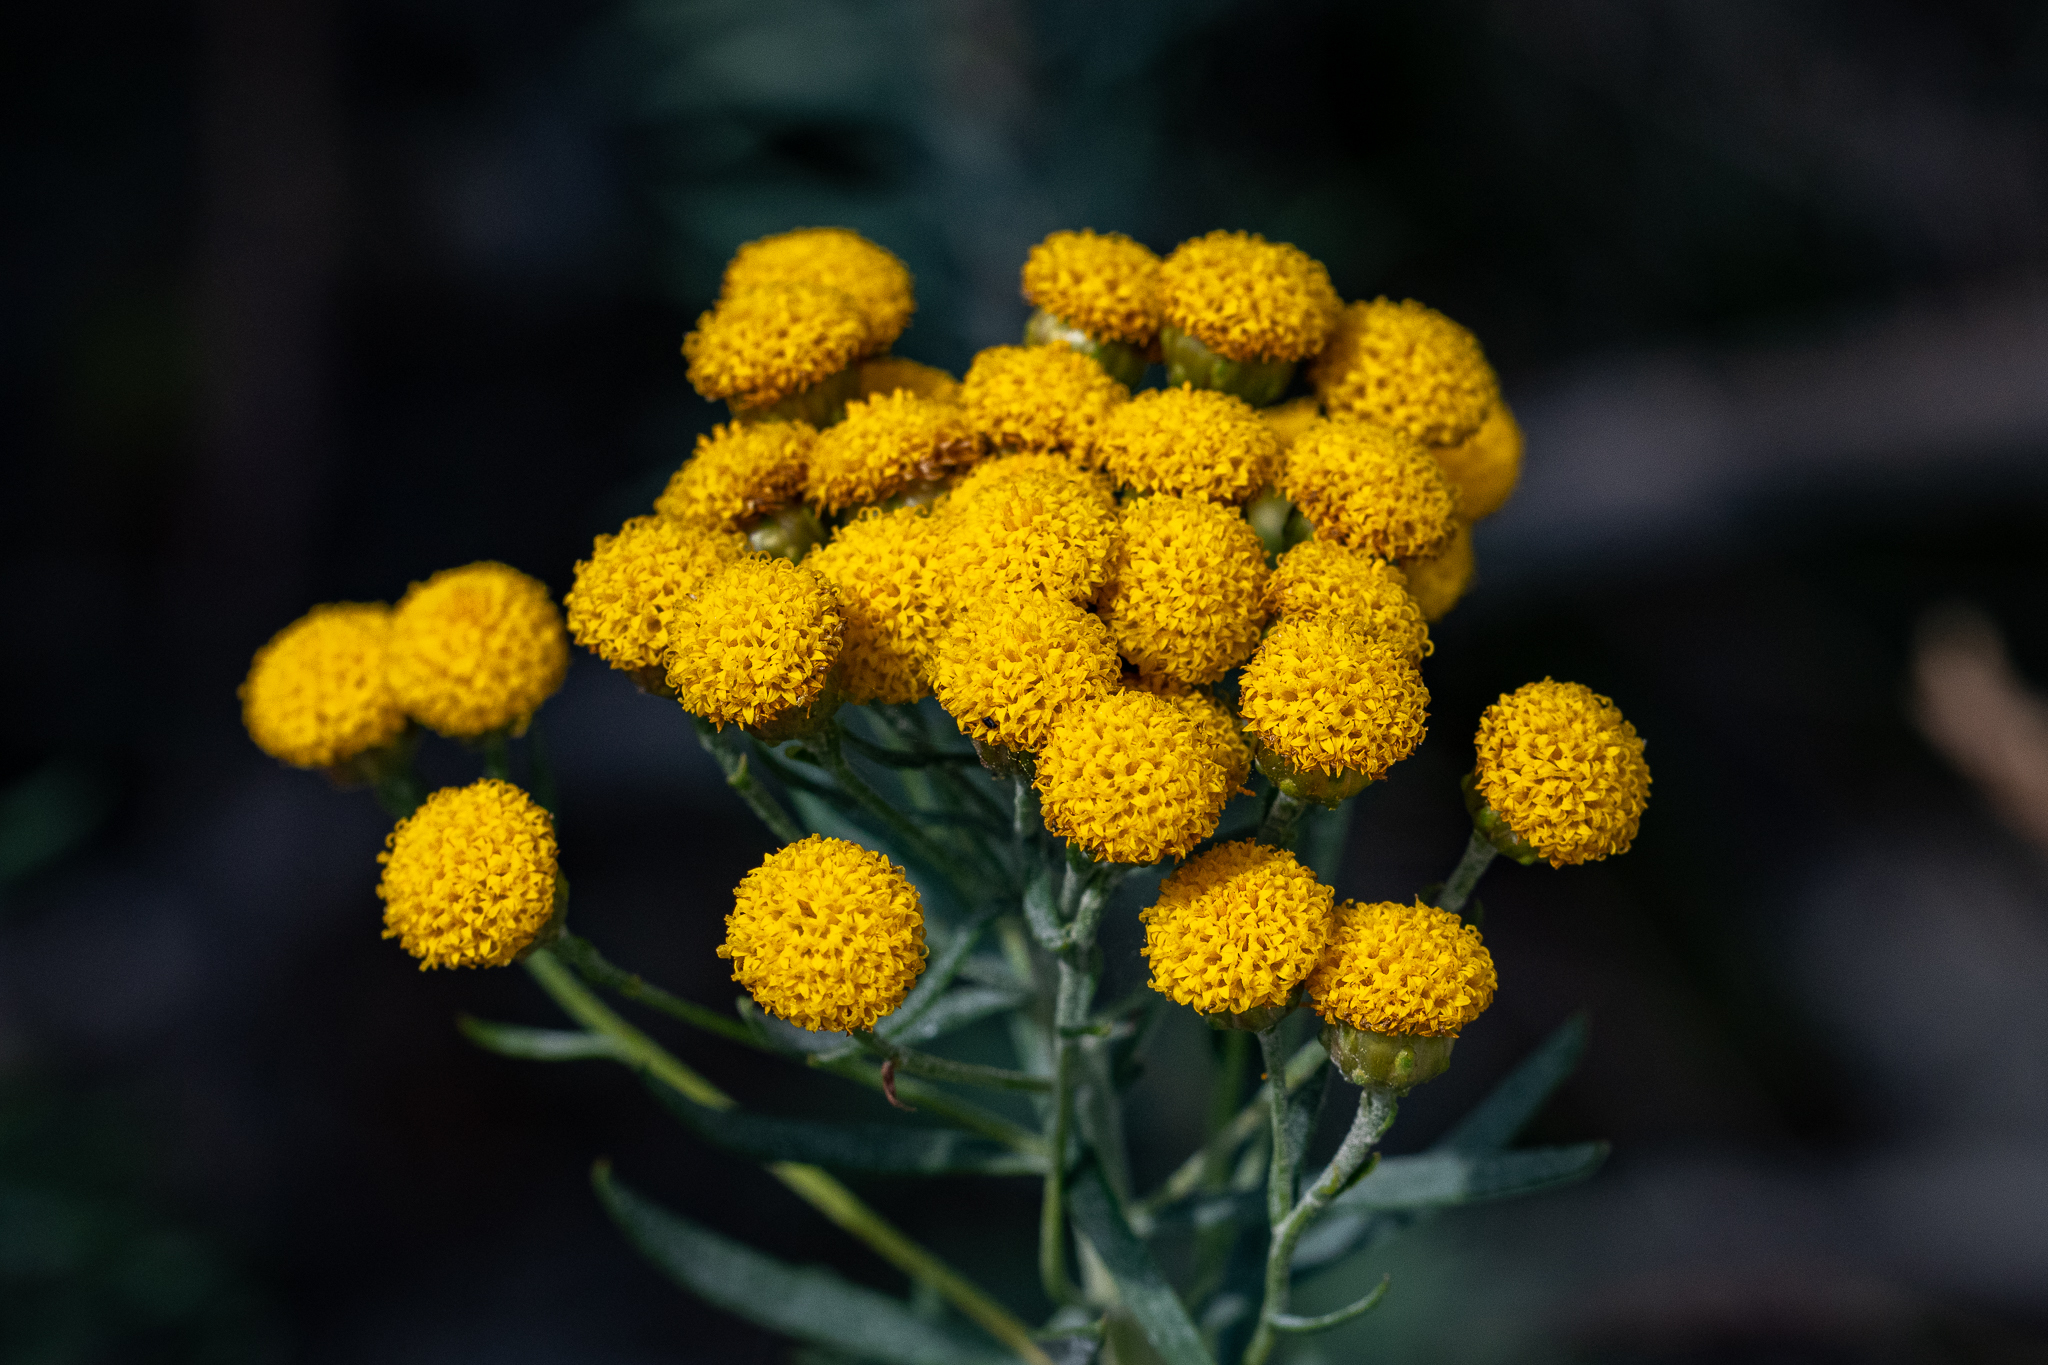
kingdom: Plantae
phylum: Tracheophyta
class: Magnoliopsida
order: Asterales
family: Asteraceae
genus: Athanasia
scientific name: Athanasia trifurcata
